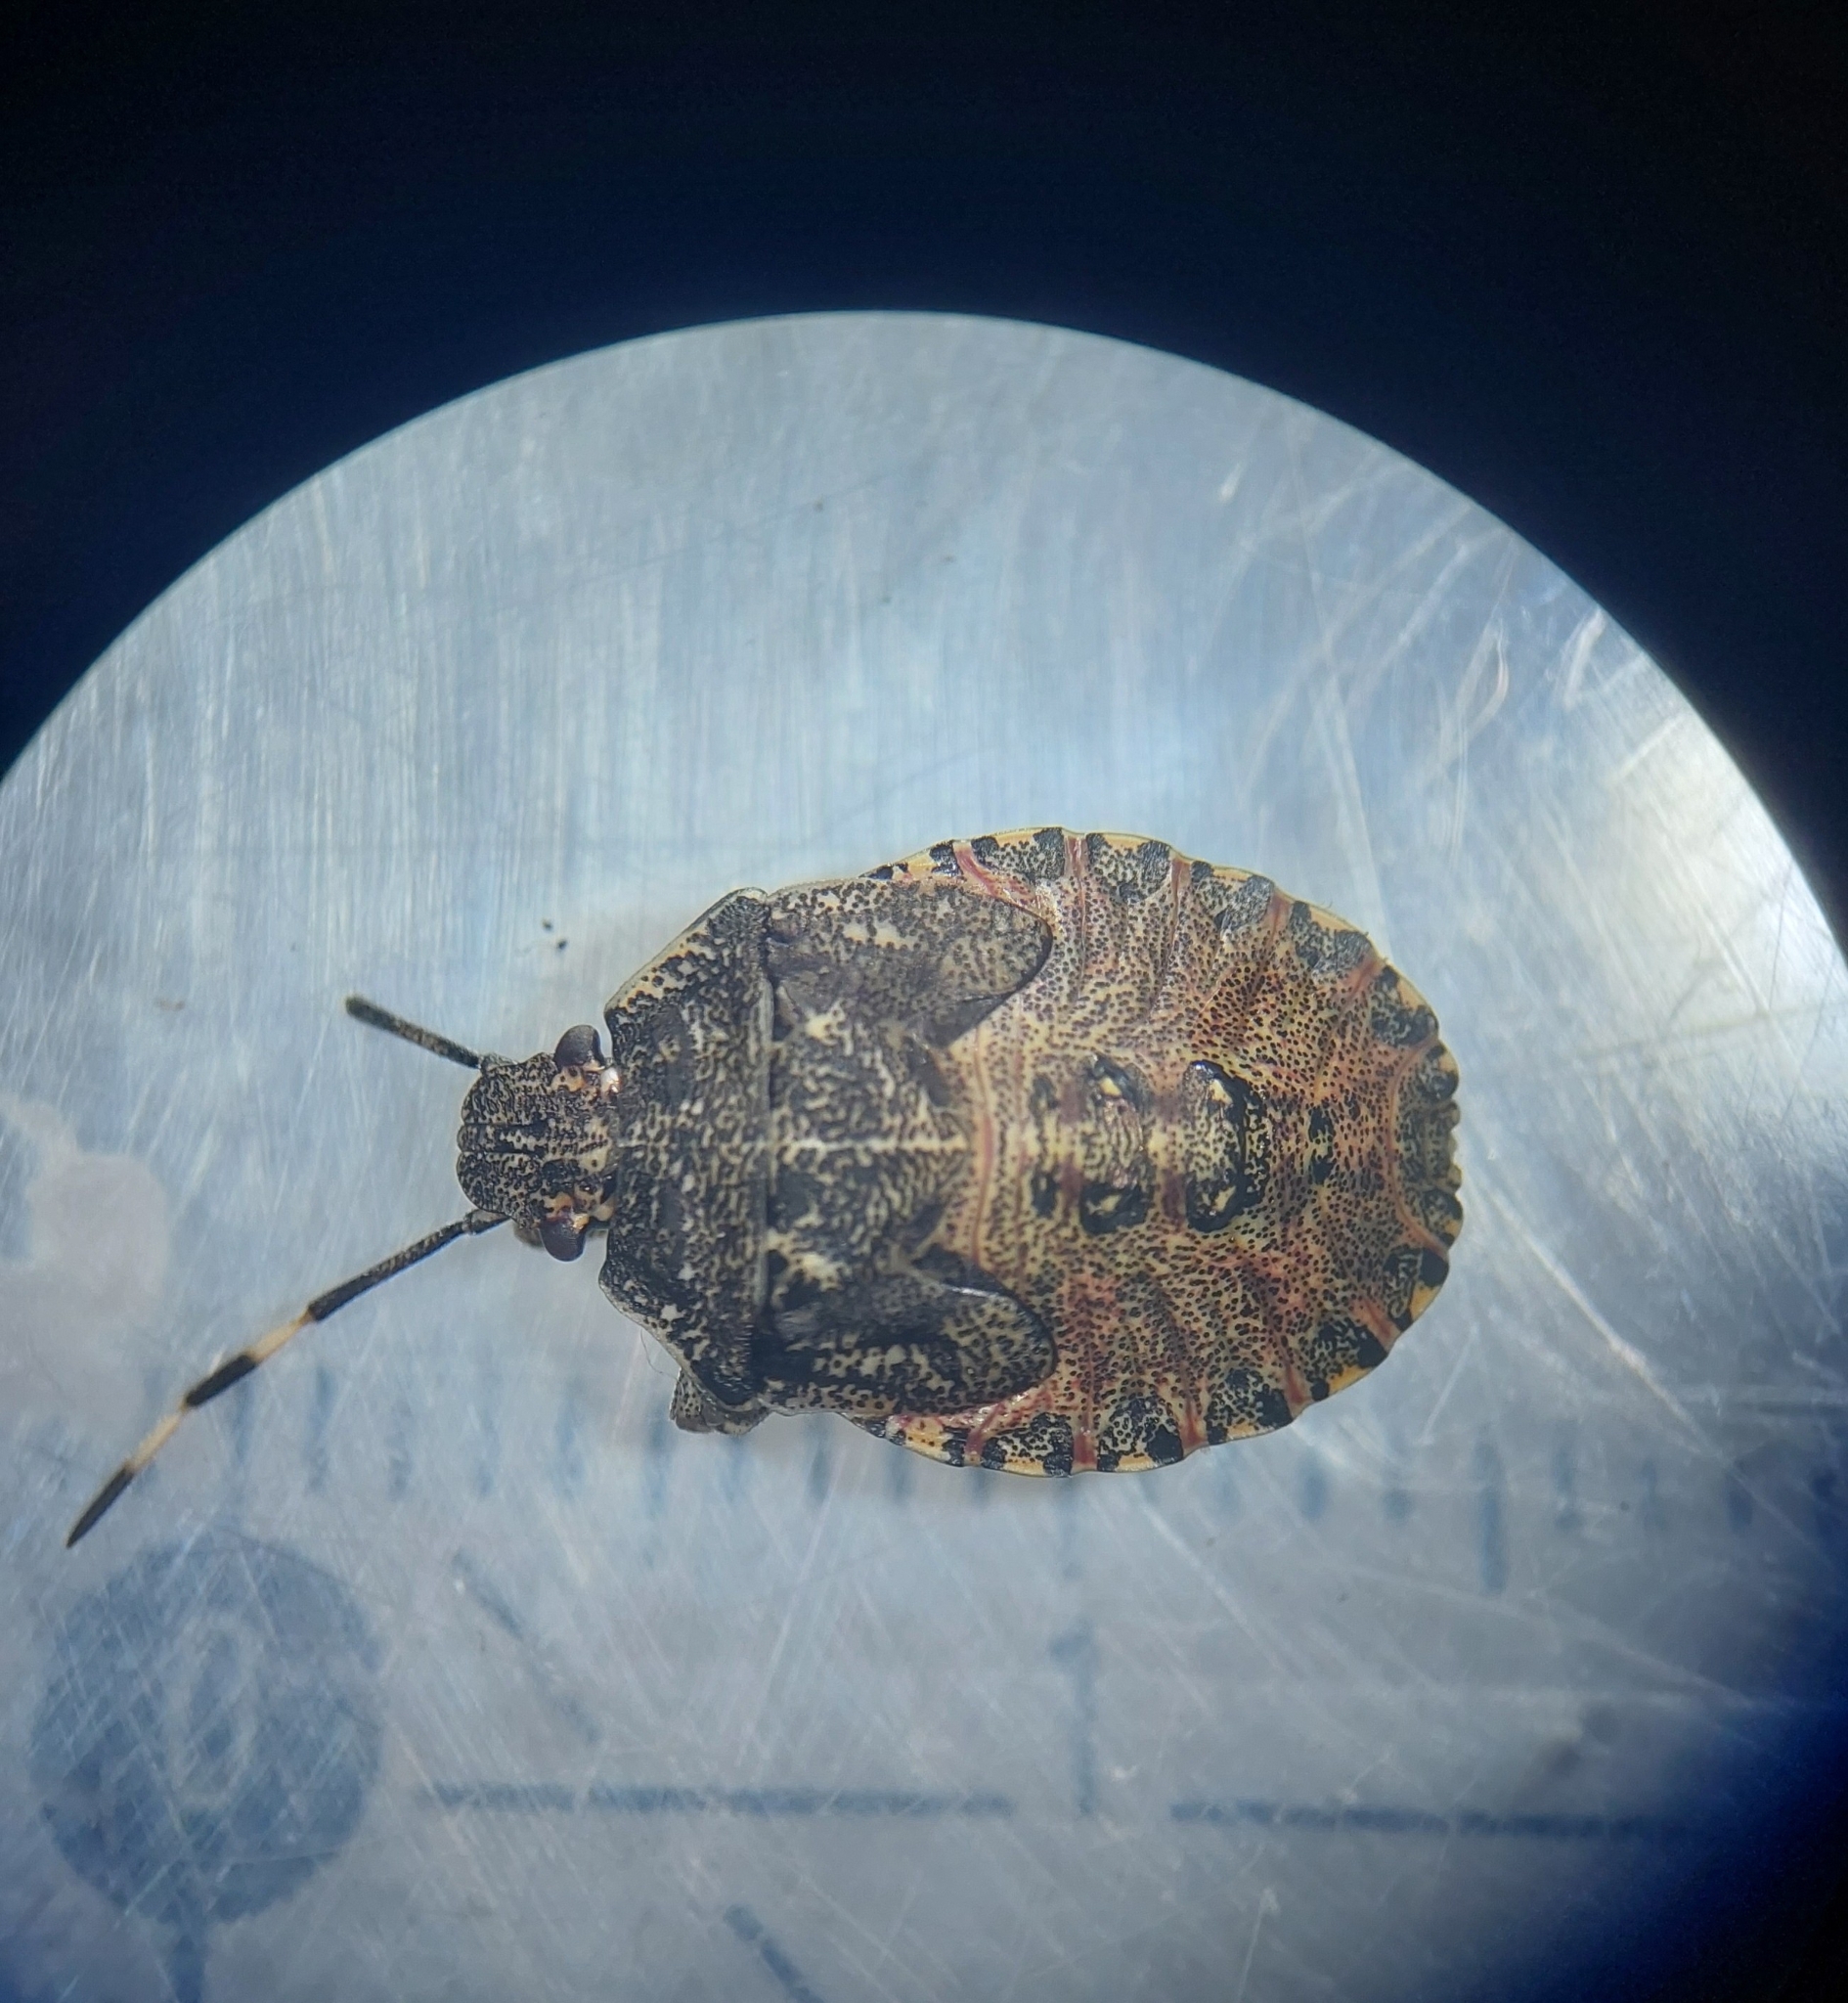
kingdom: Animalia
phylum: Arthropoda
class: Insecta
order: Hemiptera
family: Pentatomidae
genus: Rhaphigaster
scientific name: Rhaphigaster nebulosa
